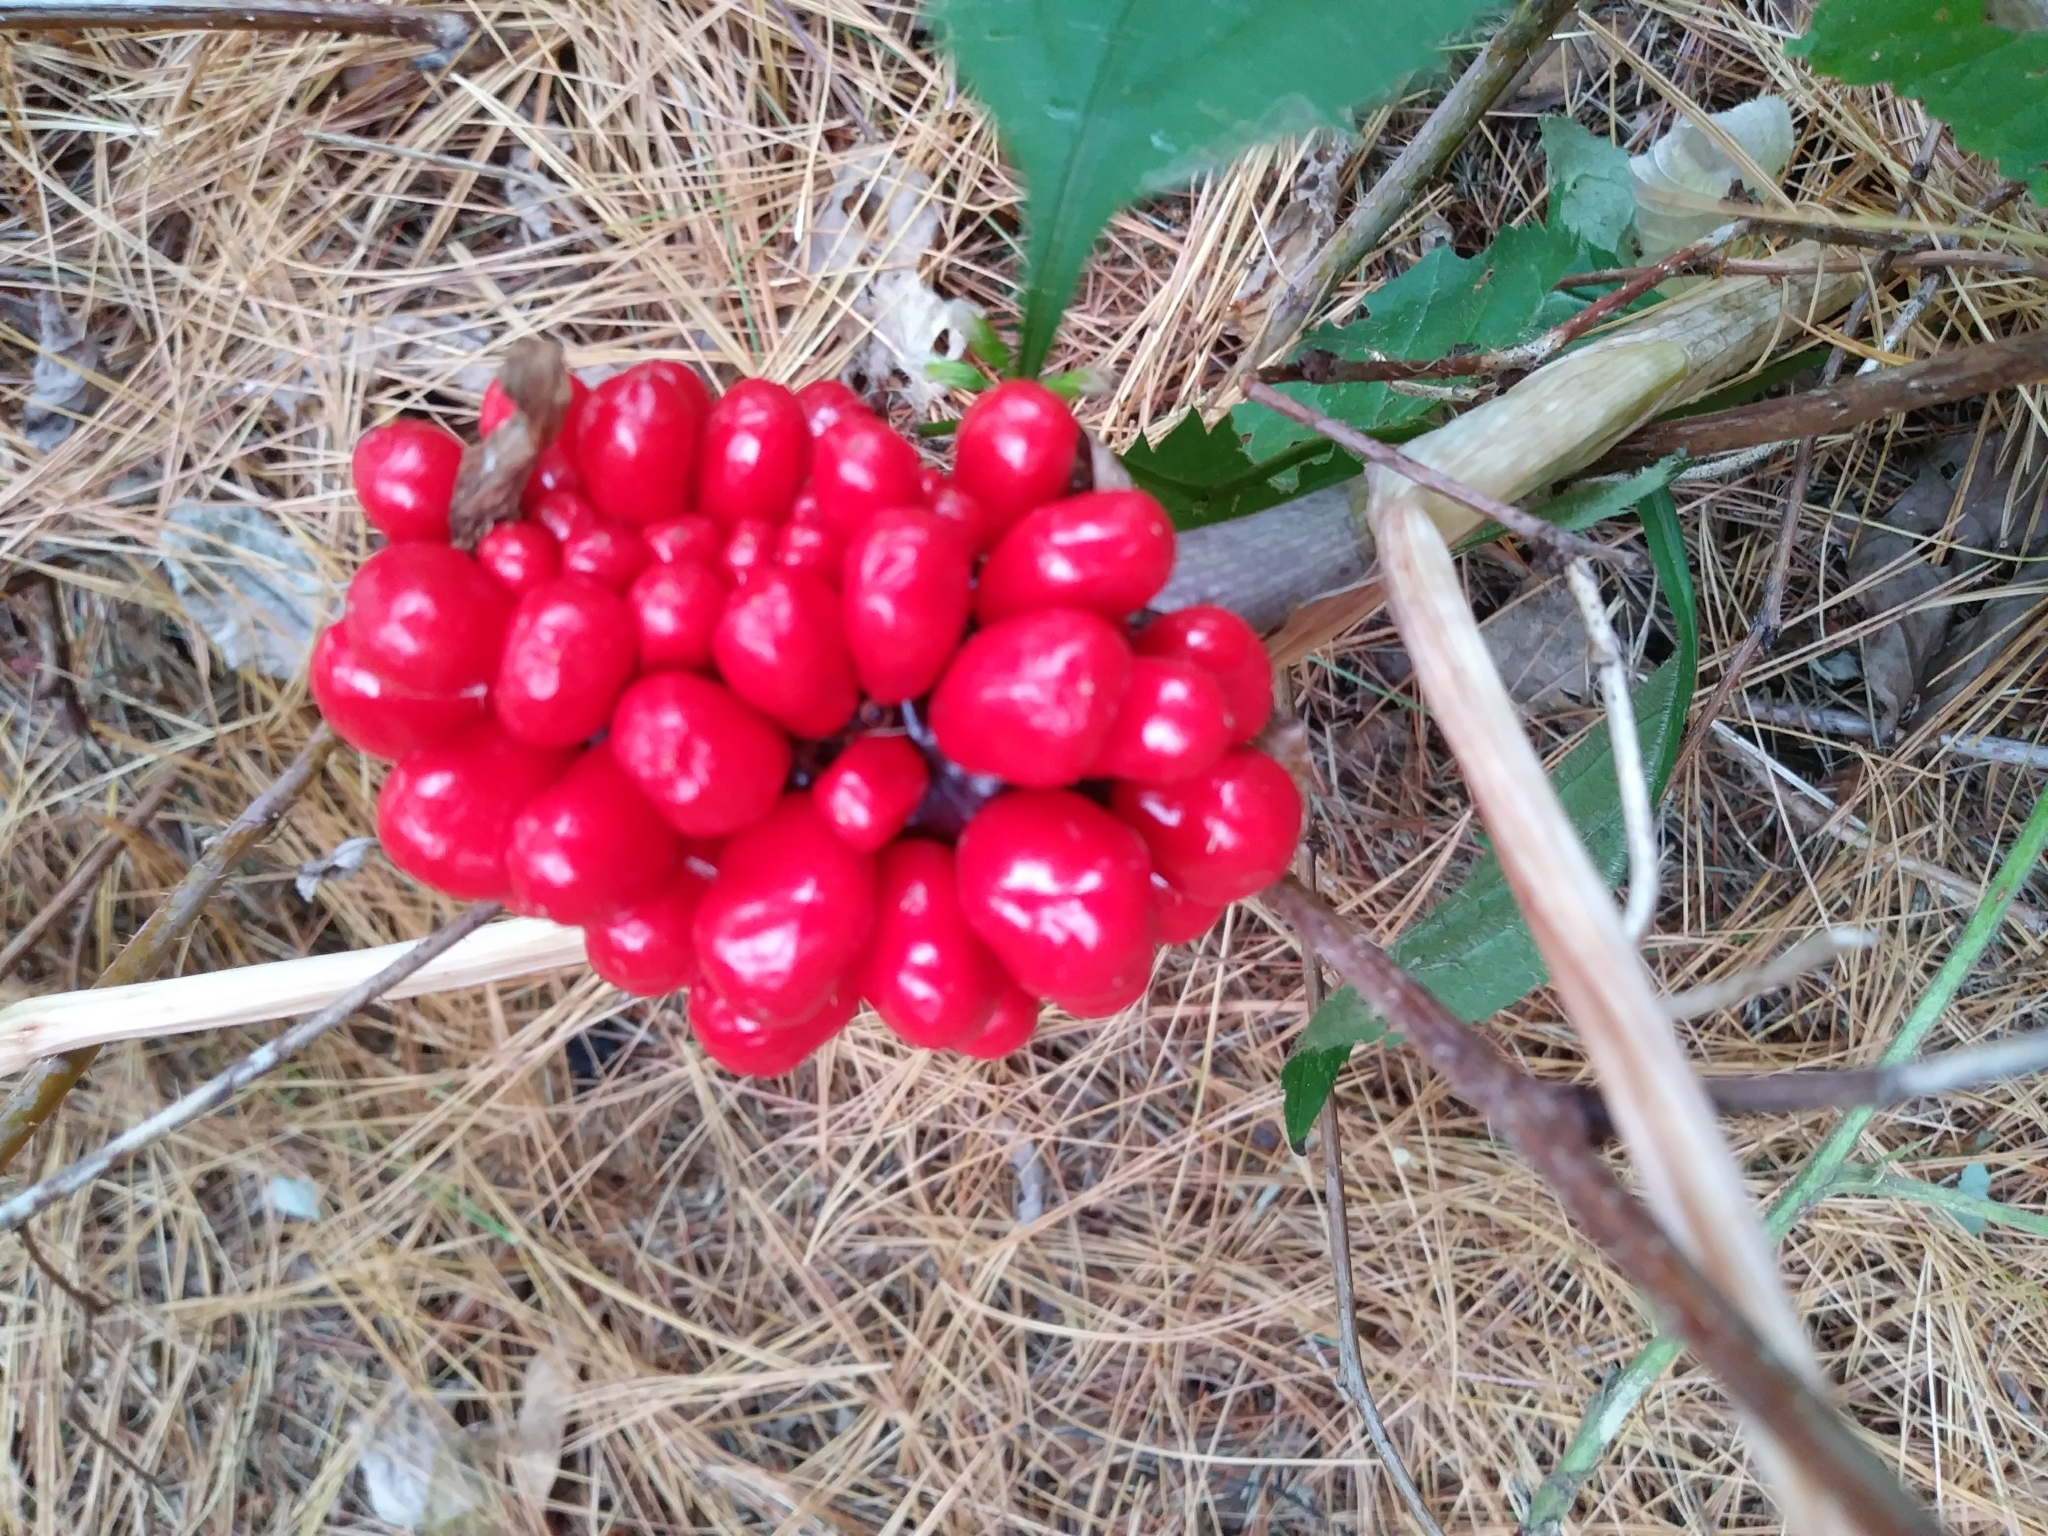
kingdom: Plantae
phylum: Tracheophyta
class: Liliopsida
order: Alismatales
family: Araceae
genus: Arisaema
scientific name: Arisaema triphyllum
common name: Jack-in-the-pulpit
